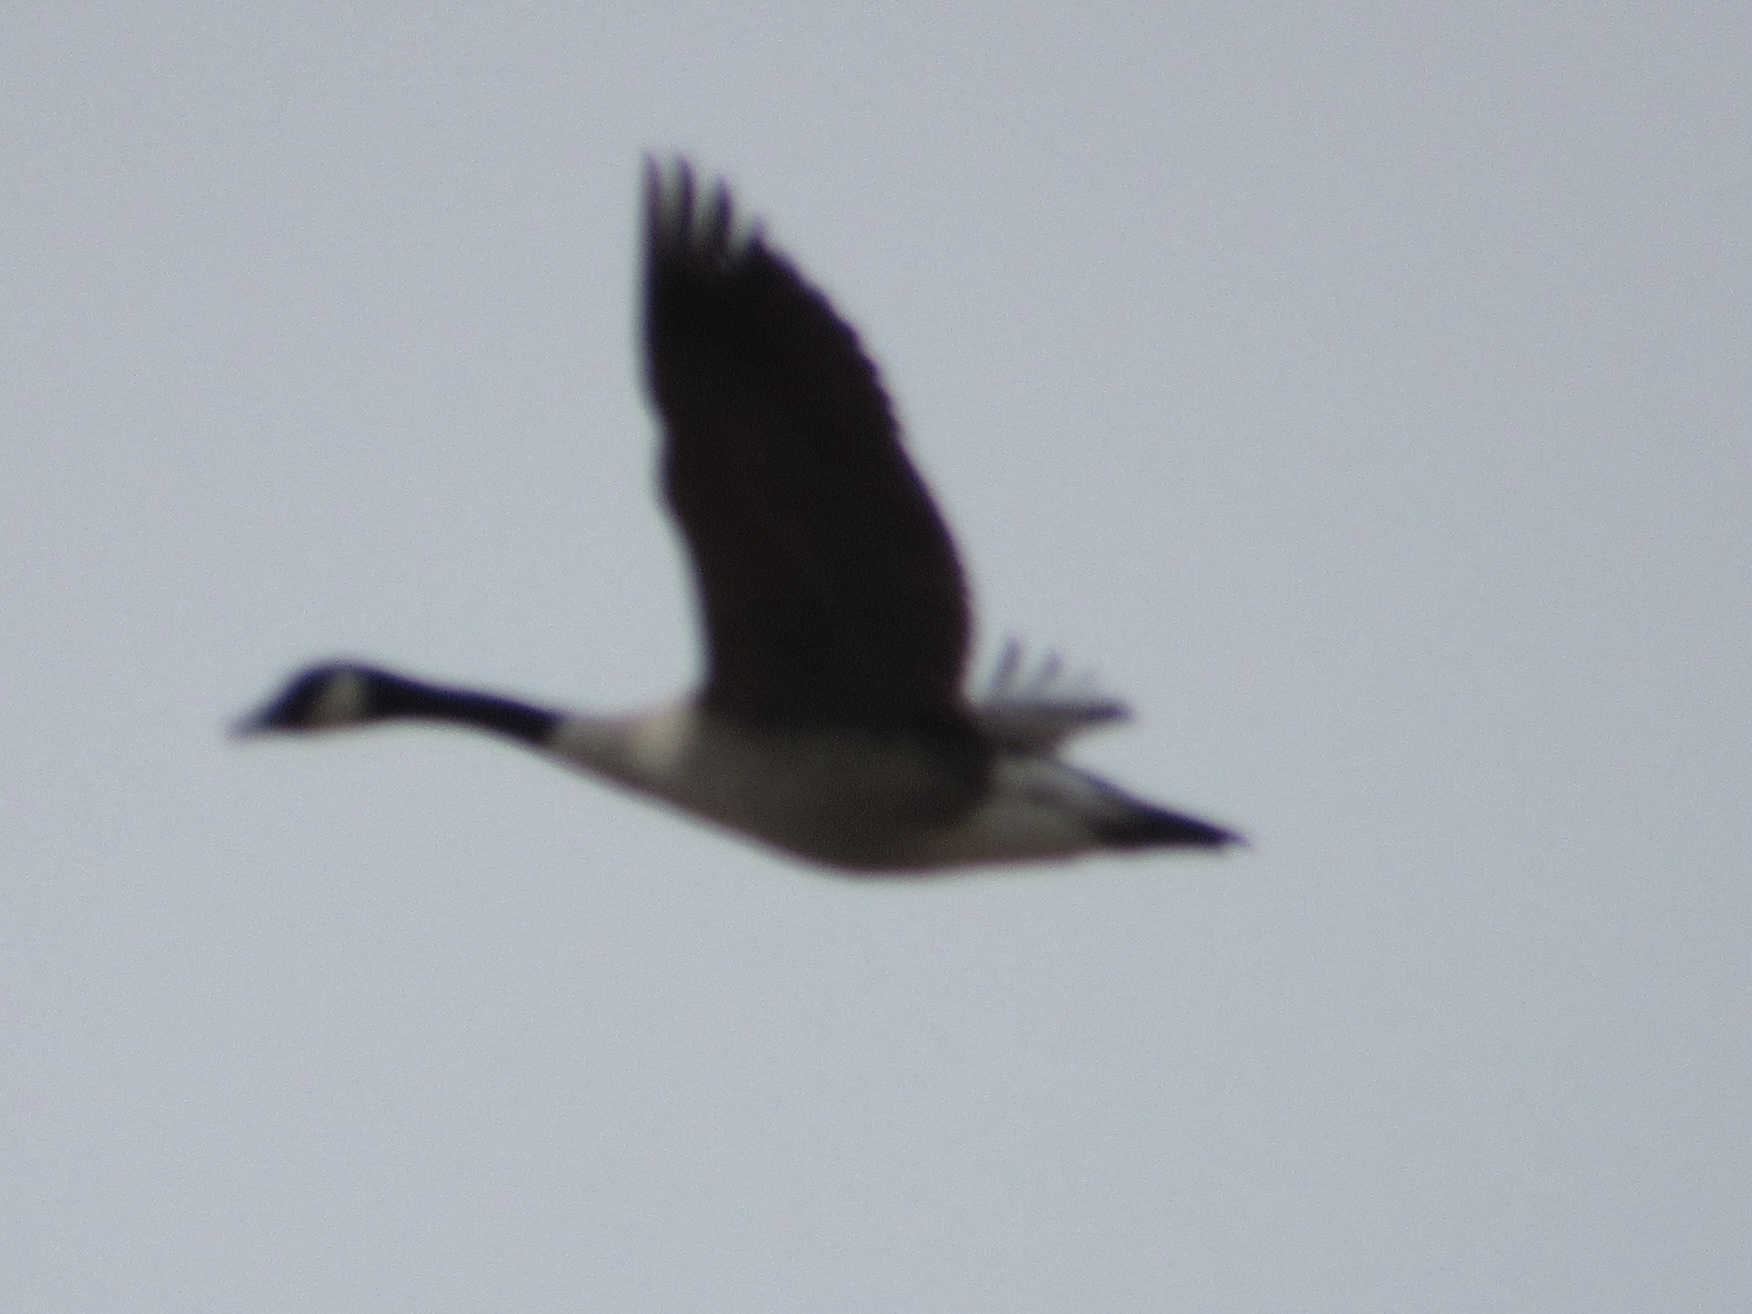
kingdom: Animalia
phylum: Chordata
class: Aves
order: Anseriformes
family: Anatidae
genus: Branta
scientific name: Branta canadensis
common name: Canada goose
